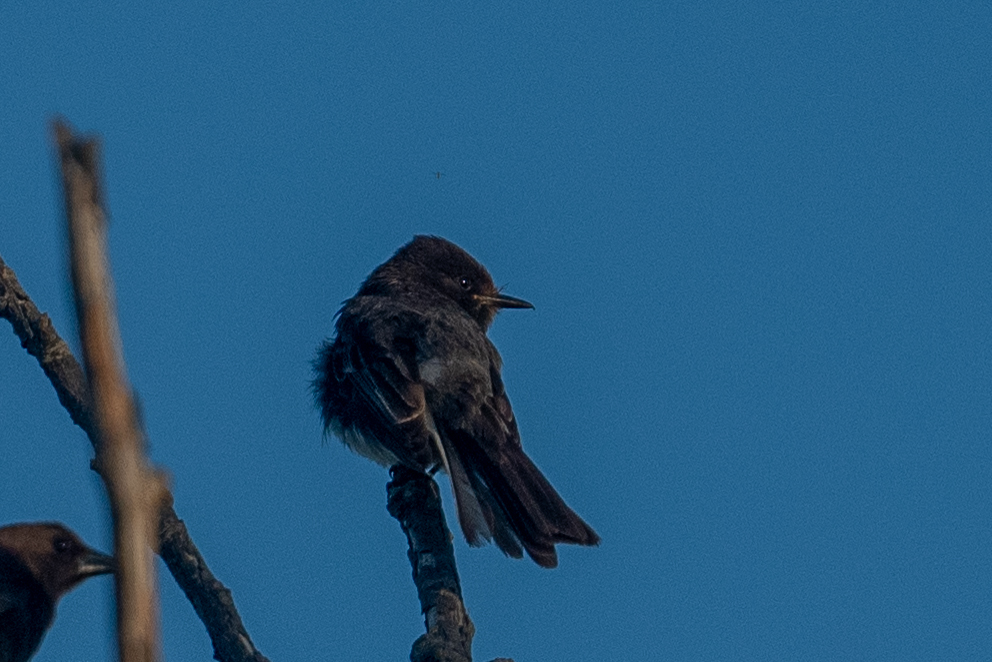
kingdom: Animalia
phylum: Chordata
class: Aves
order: Passeriformes
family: Tyrannidae
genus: Sayornis
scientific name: Sayornis nigricans
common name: Black phoebe
